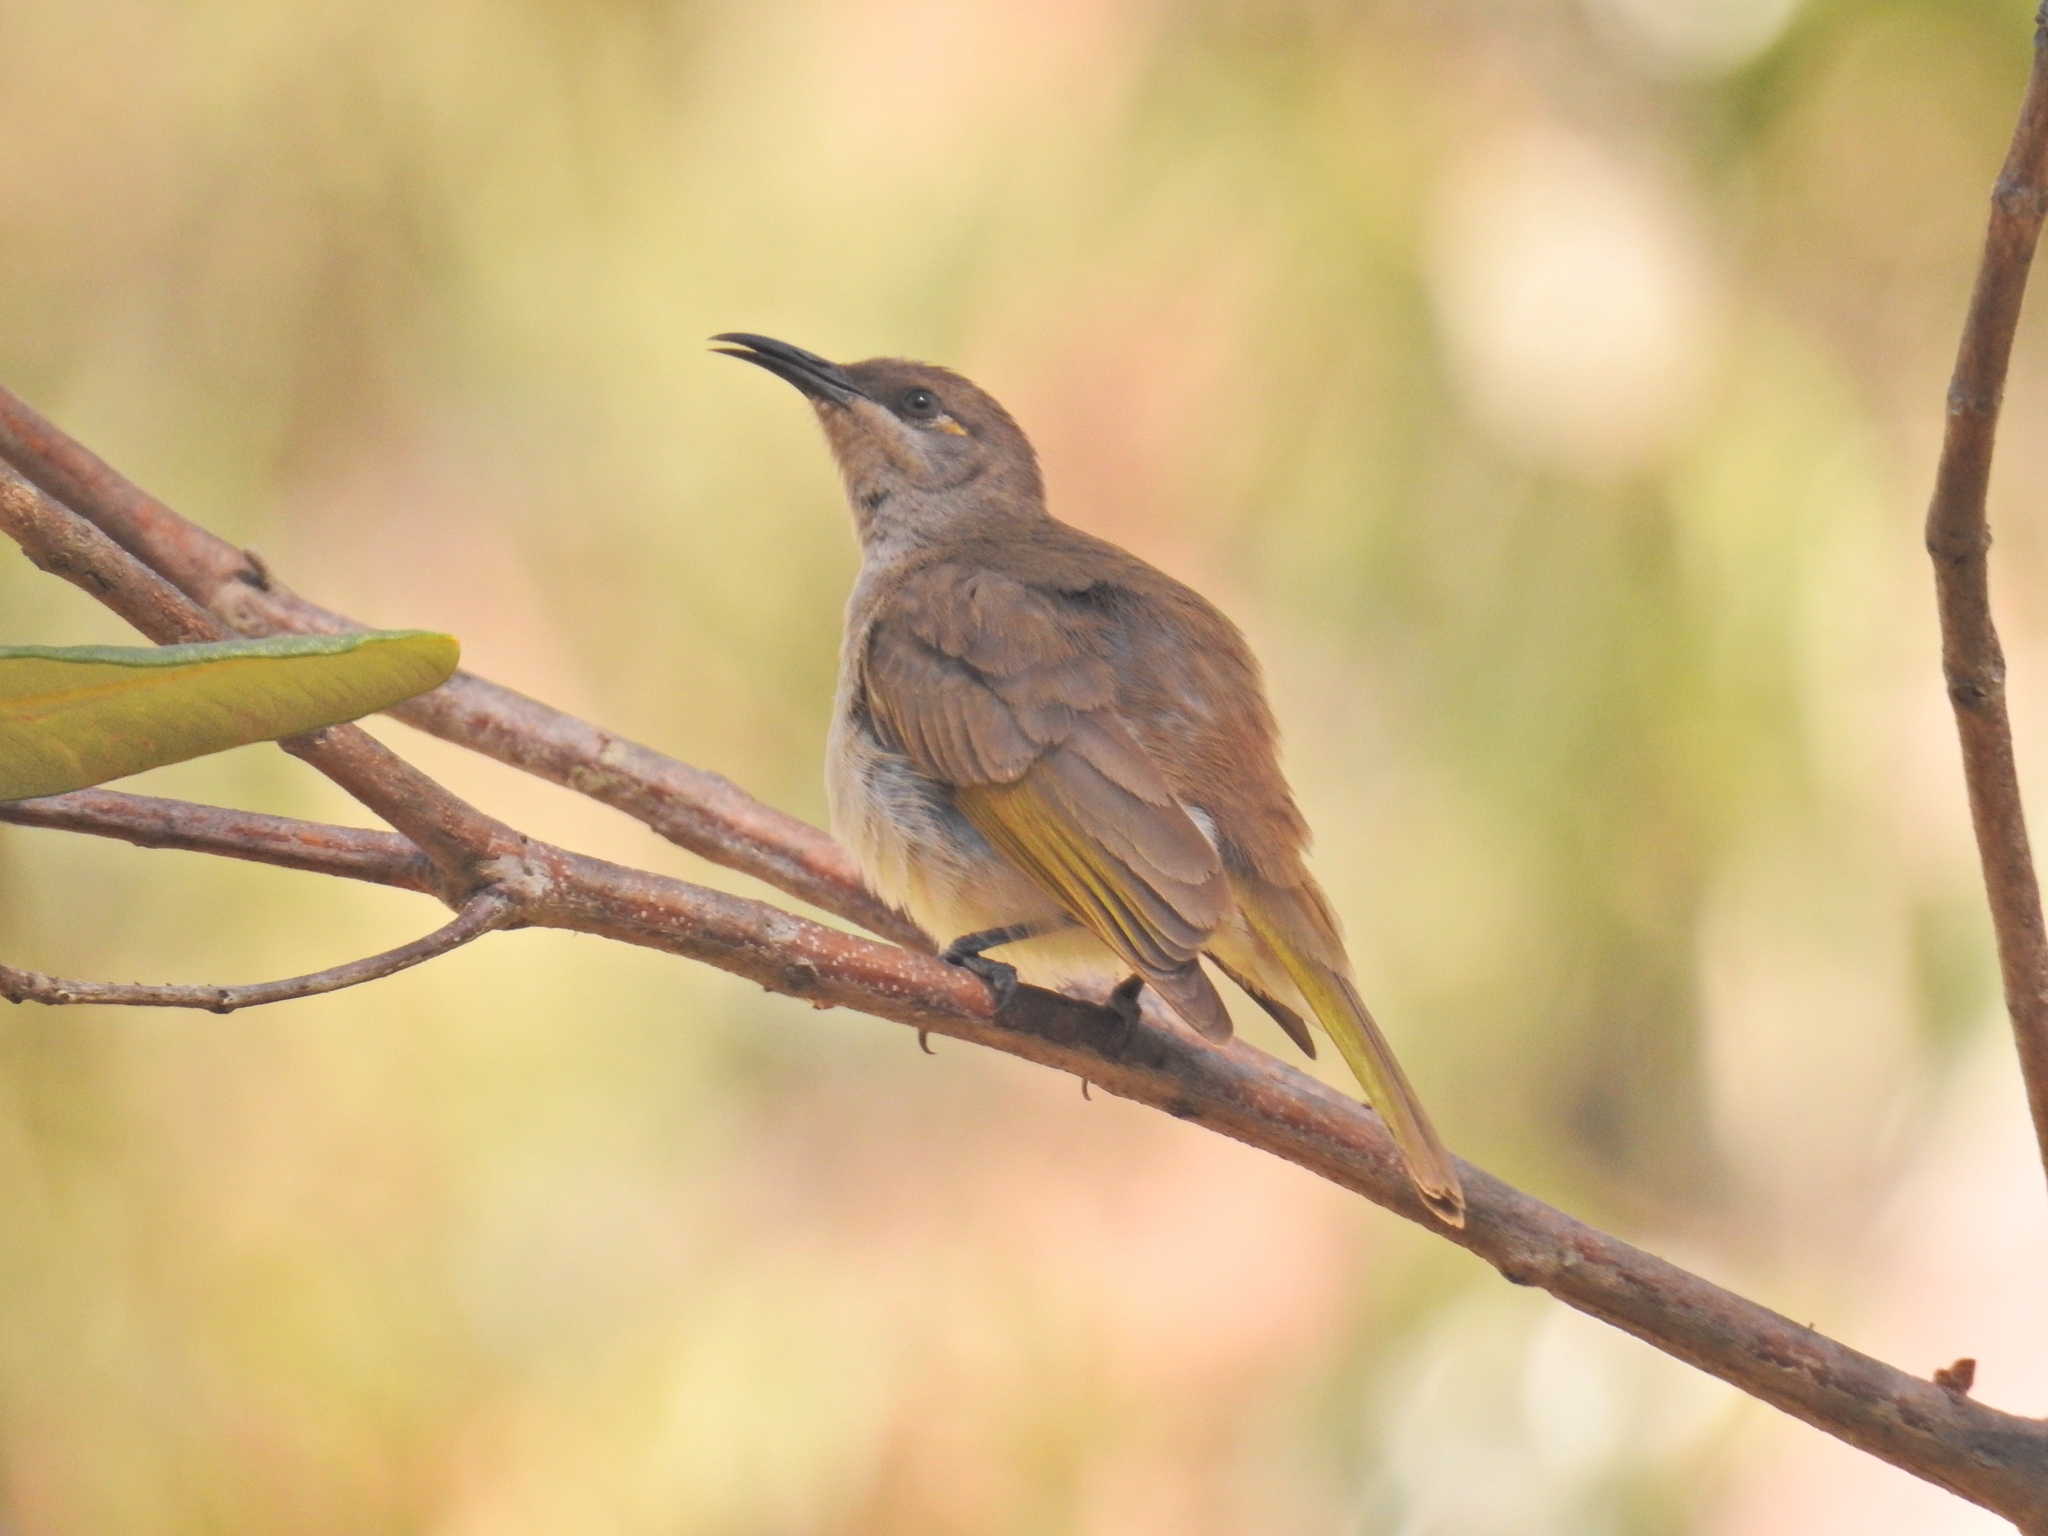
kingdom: Animalia
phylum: Chordata
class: Aves
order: Passeriformes
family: Meliphagidae
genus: Lichmera
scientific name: Lichmera indistincta
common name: Brown honeyeater
